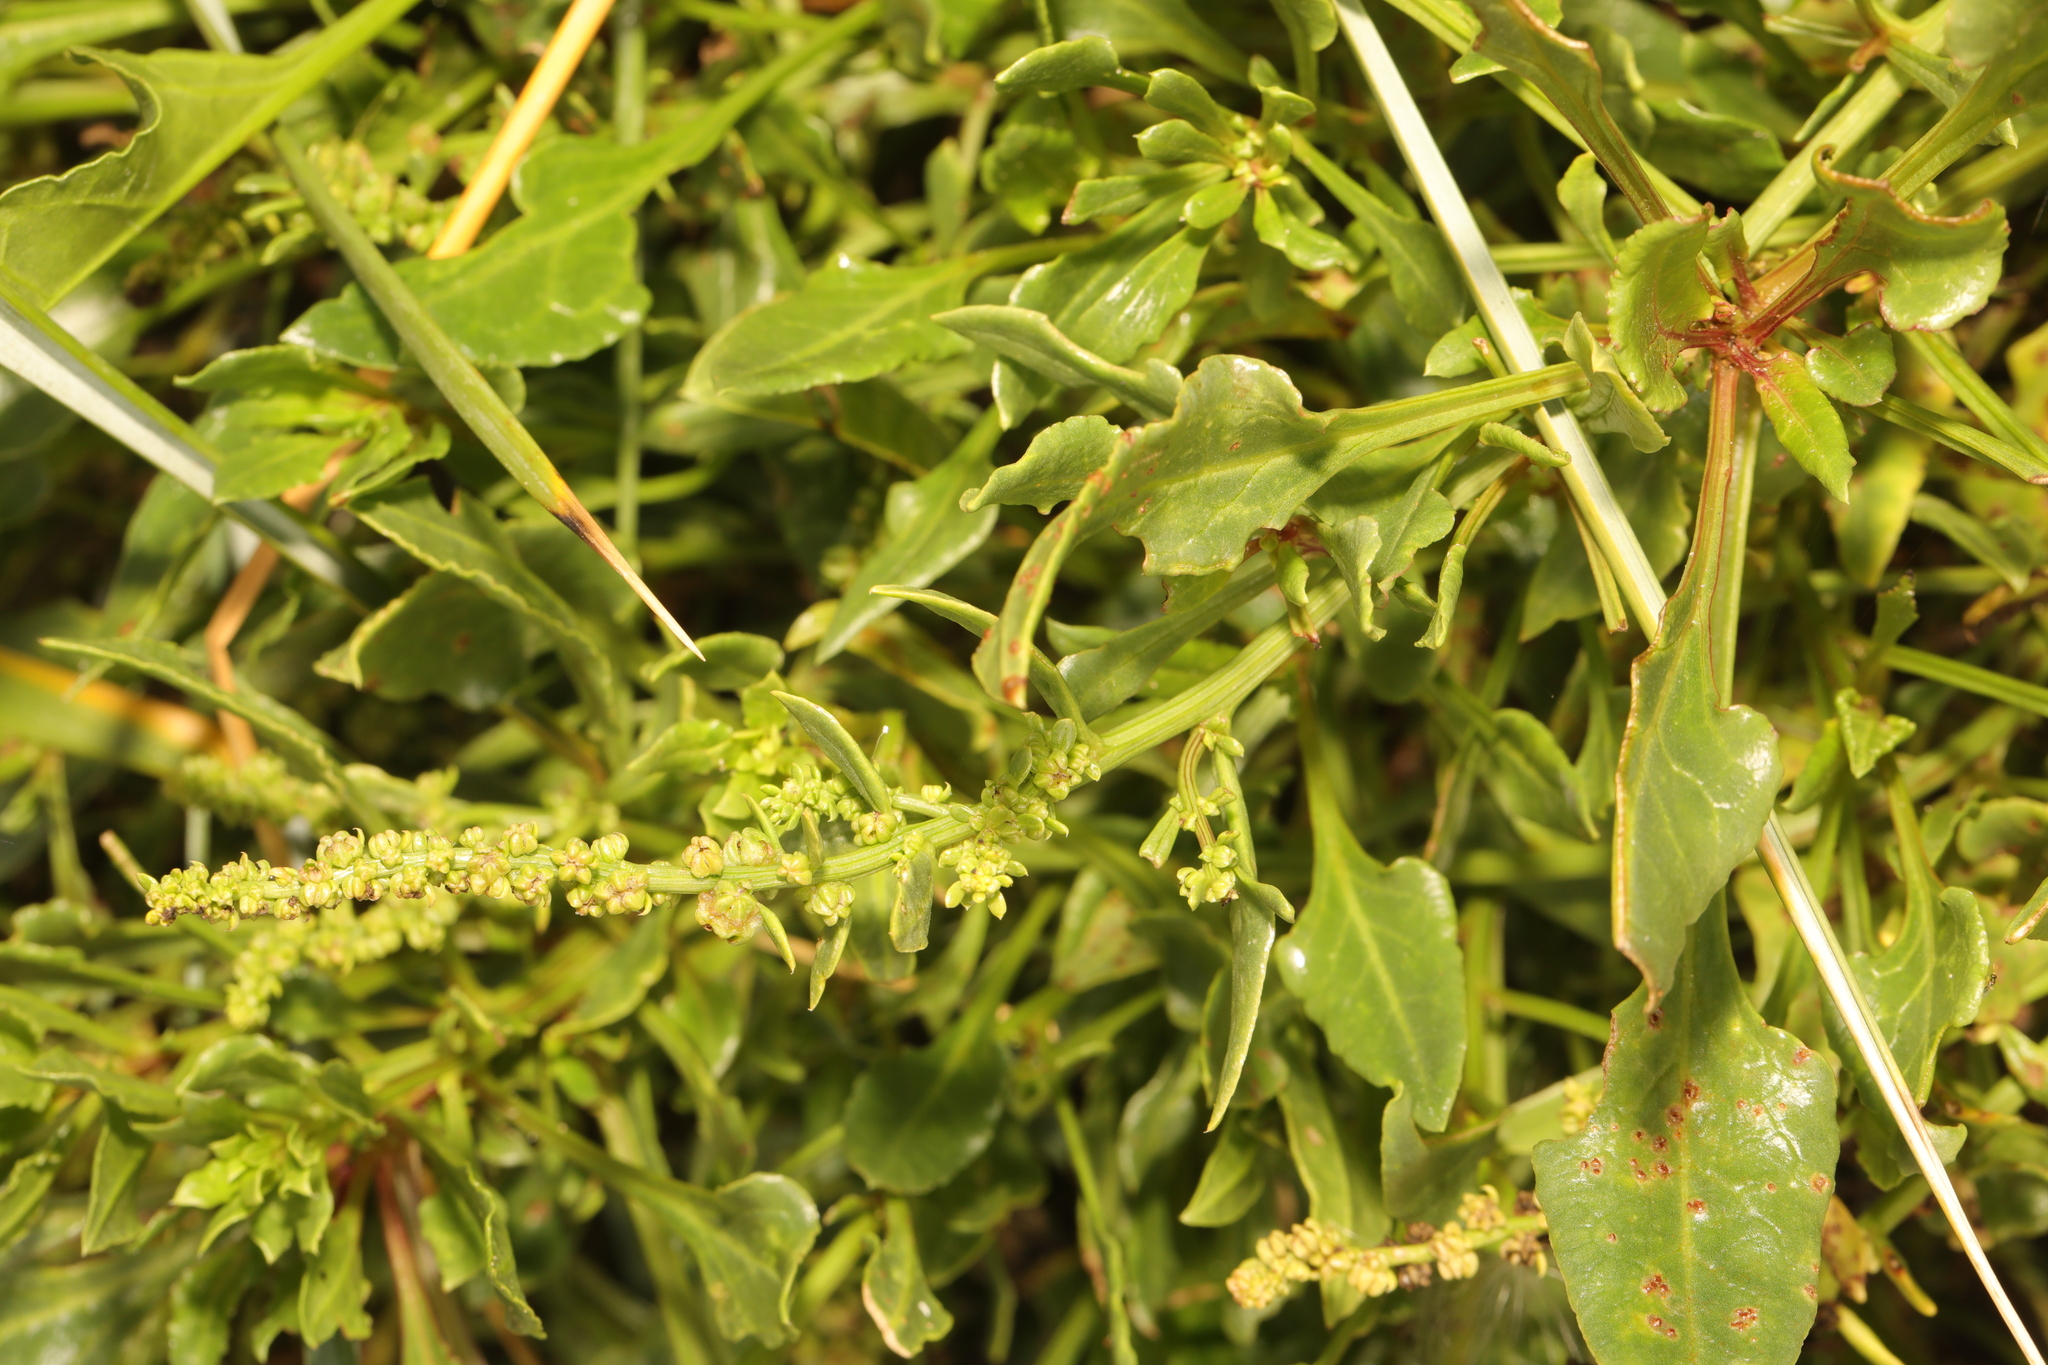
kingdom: Plantae
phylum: Tracheophyta
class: Magnoliopsida
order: Caryophyllales
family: Amaranthaceae
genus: Beta
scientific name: Beta vulgaris
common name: Beet
